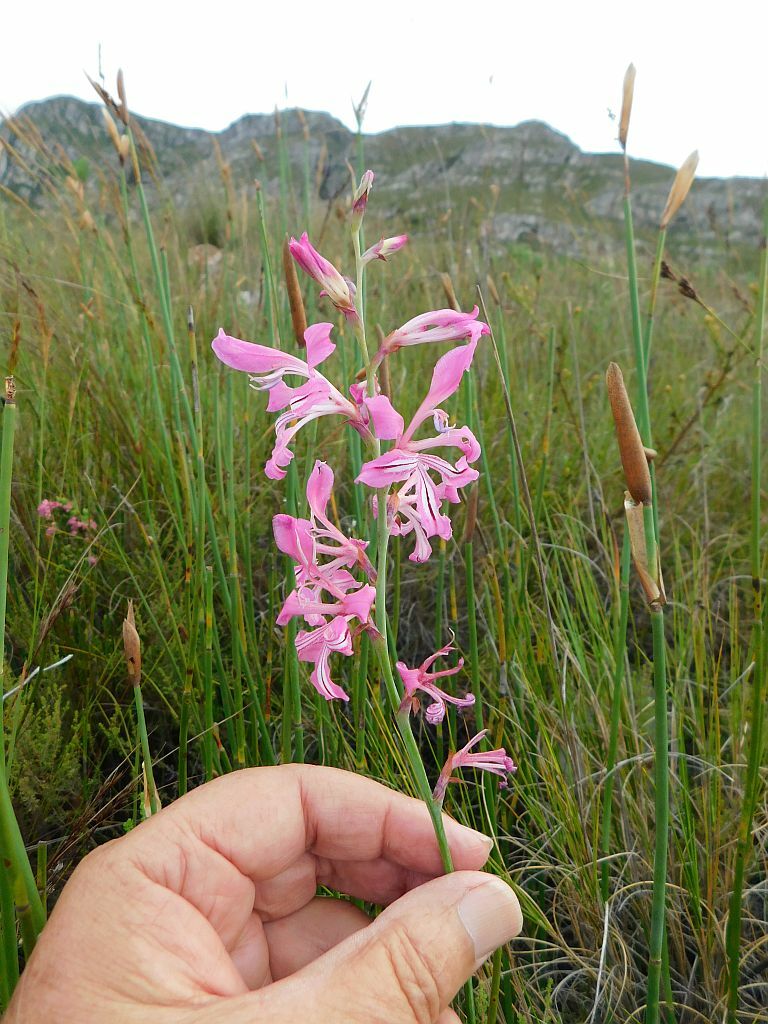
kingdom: Plantae
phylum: Tracheophyta
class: Liliopsida
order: Asparagales
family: Iridaceae
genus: Tritoniopsis
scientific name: Tritoniopsis lata
